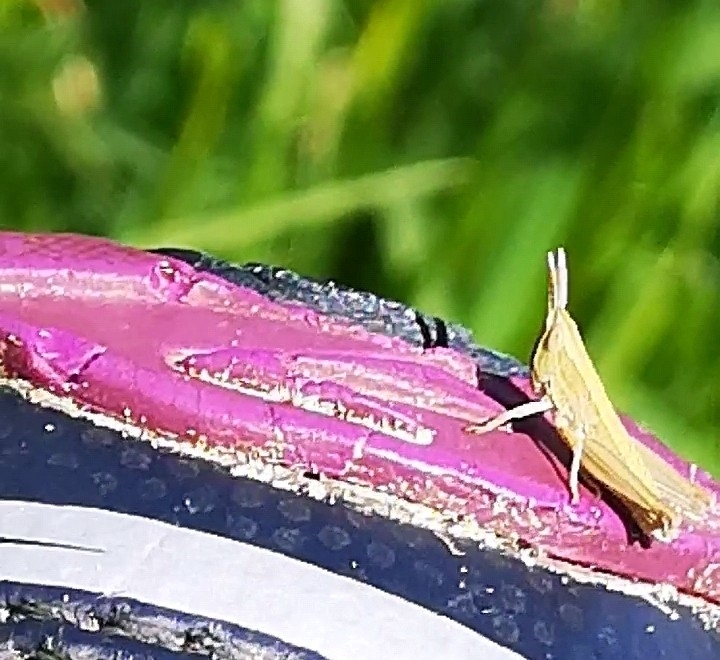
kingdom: Animalia
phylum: Arthropoda
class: Insecta
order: Orthoptera
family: Acrididae
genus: Euthystira
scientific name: Euthystira brachyptera
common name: Small gold grasshopper
